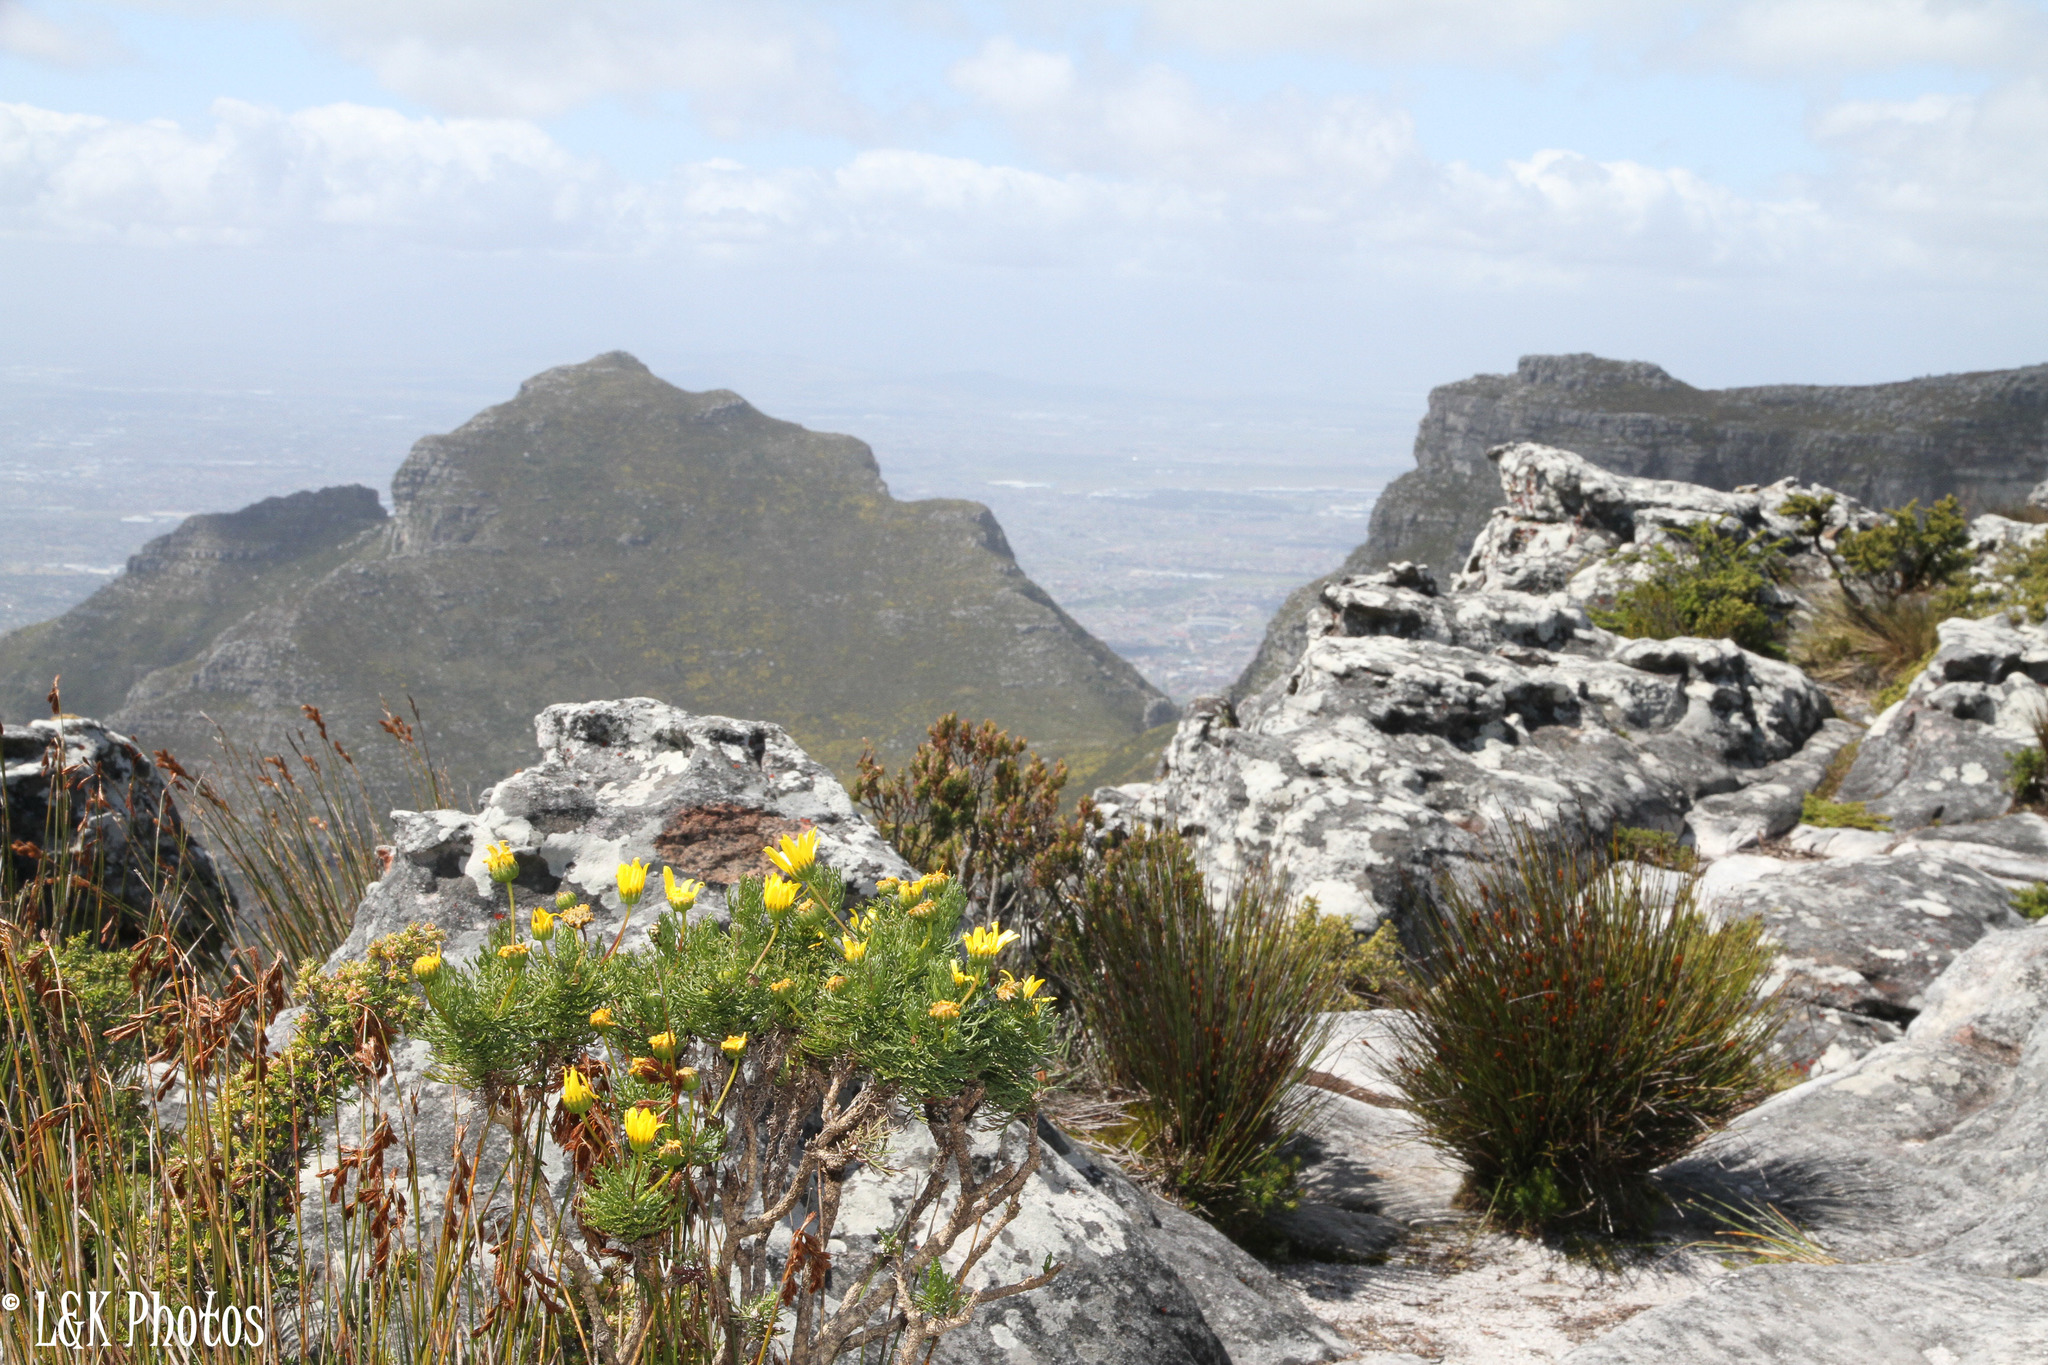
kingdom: Plantae
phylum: Tracheophyta
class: Magnoliopsida
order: Asterales
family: Asteraceae
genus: Euryops
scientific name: Euryops abrotanifolius
